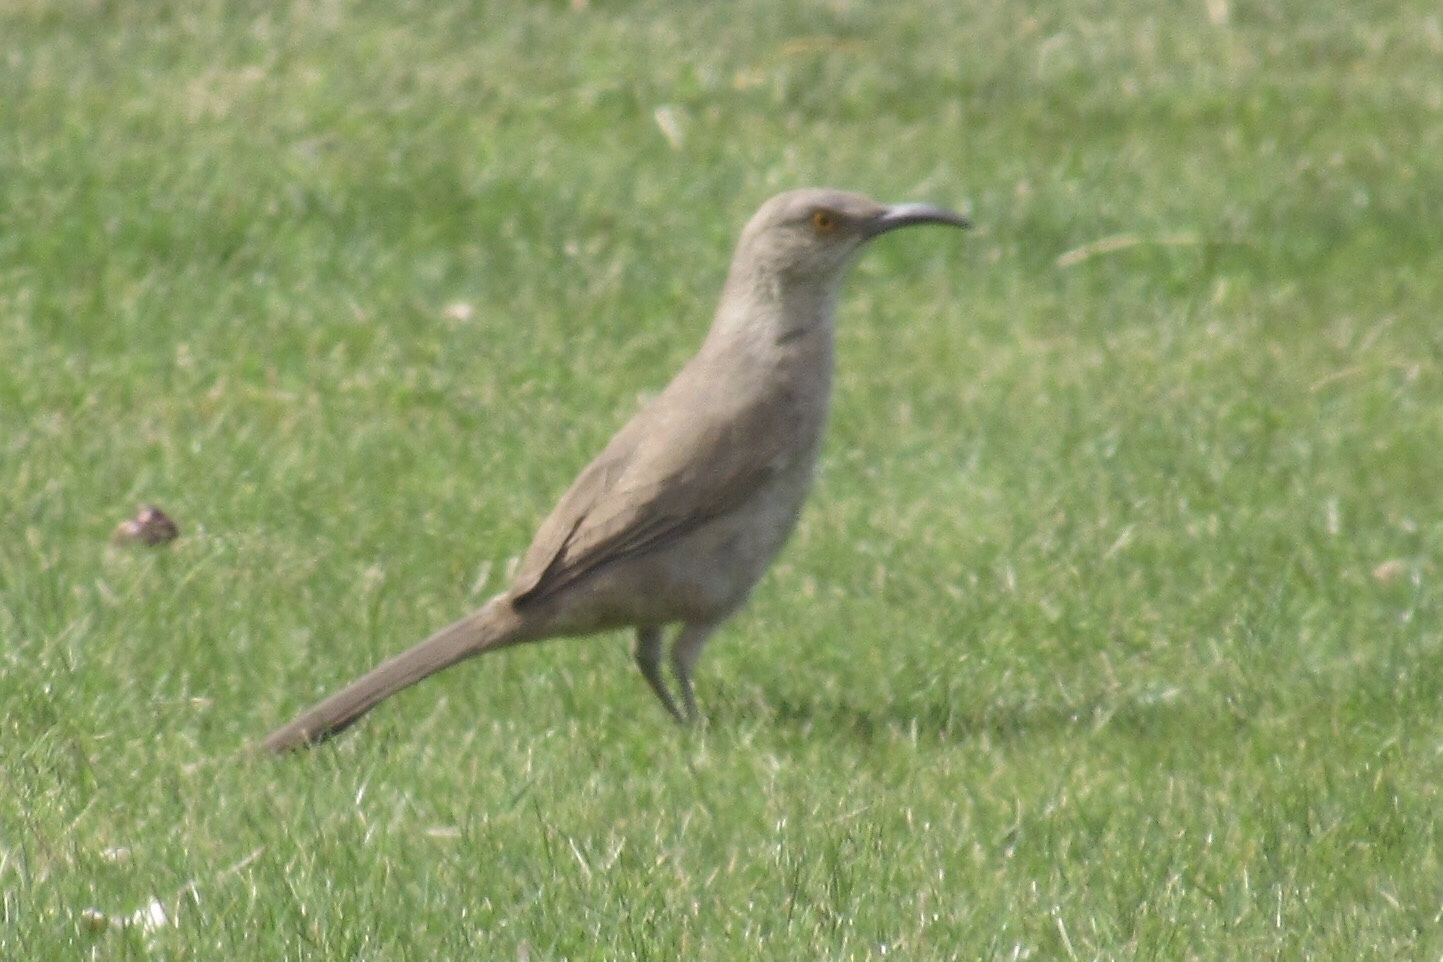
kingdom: Animalia
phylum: Chordata
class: Aves
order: Passeriformes
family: Mimidae
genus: Toxostoma
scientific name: Toxostoma curvirostre
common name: Curve-billed thrasher
